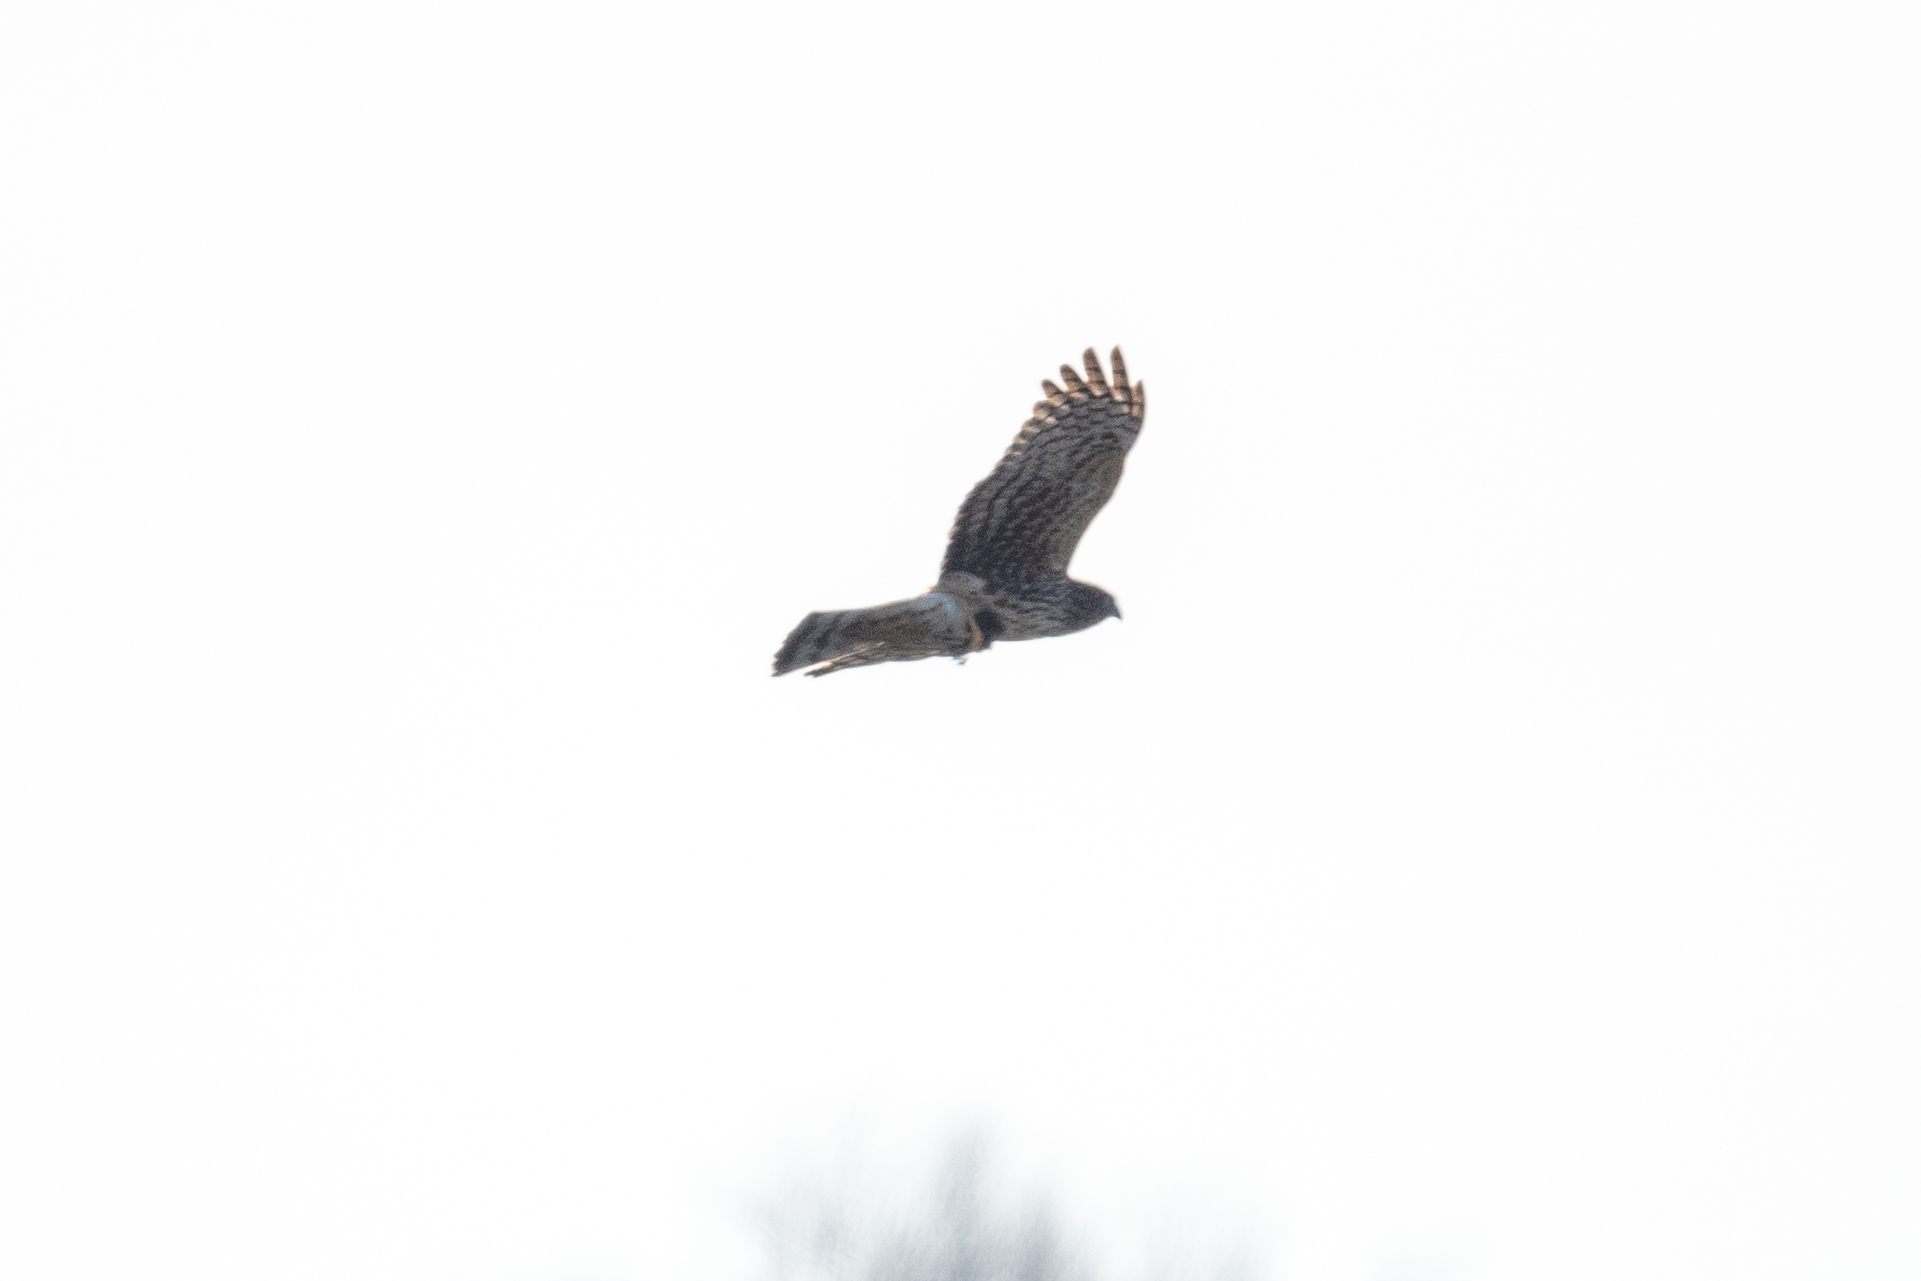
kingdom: Animalia
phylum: Chordata
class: Aves
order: Accipitriformes
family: Accipitridae
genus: Circus
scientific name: Circus cyaneus
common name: Hen harrier
